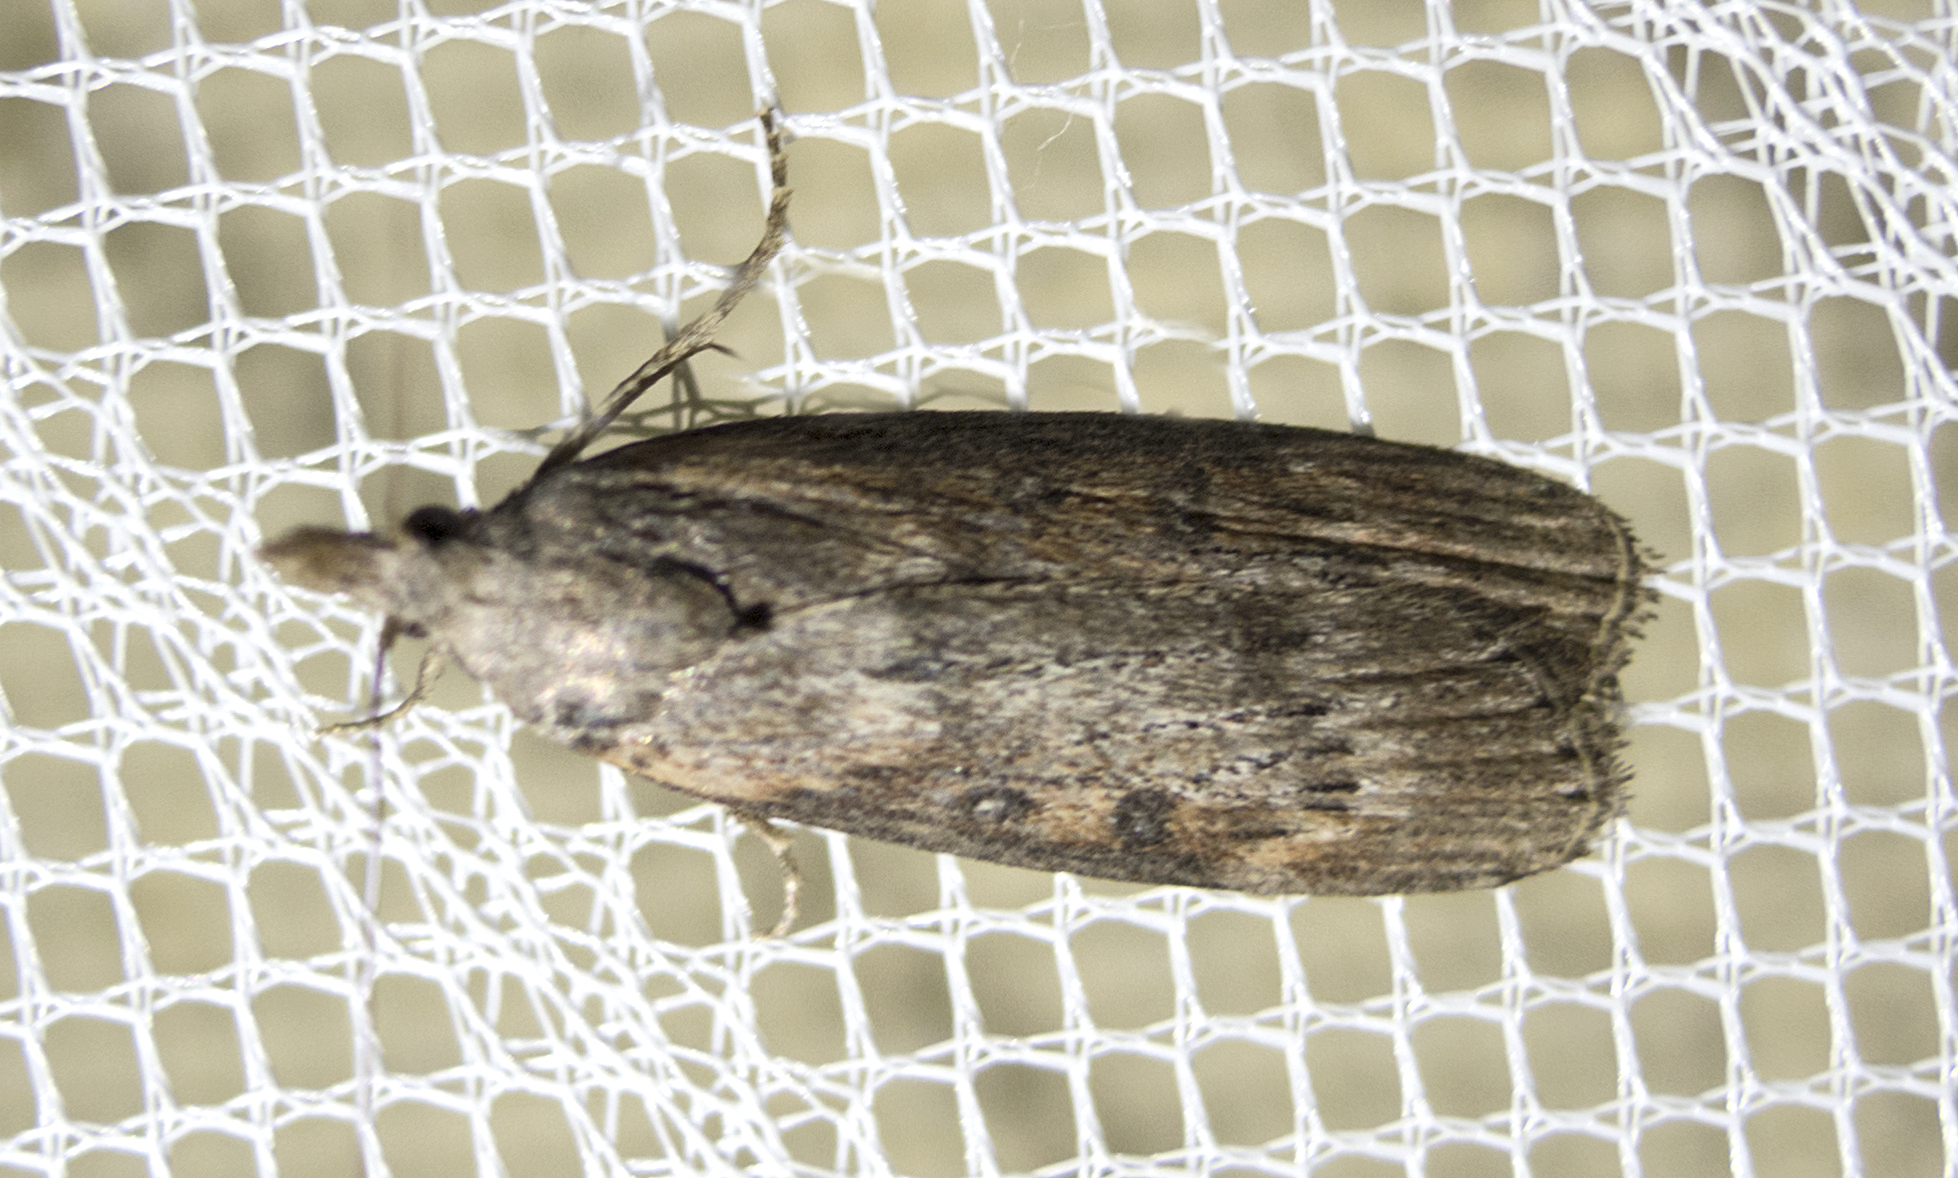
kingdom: Animalia
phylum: Arthropoda
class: Insecta
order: Lepidoptera
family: Pyralidae
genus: Lamoria
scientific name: Lamoria anella
